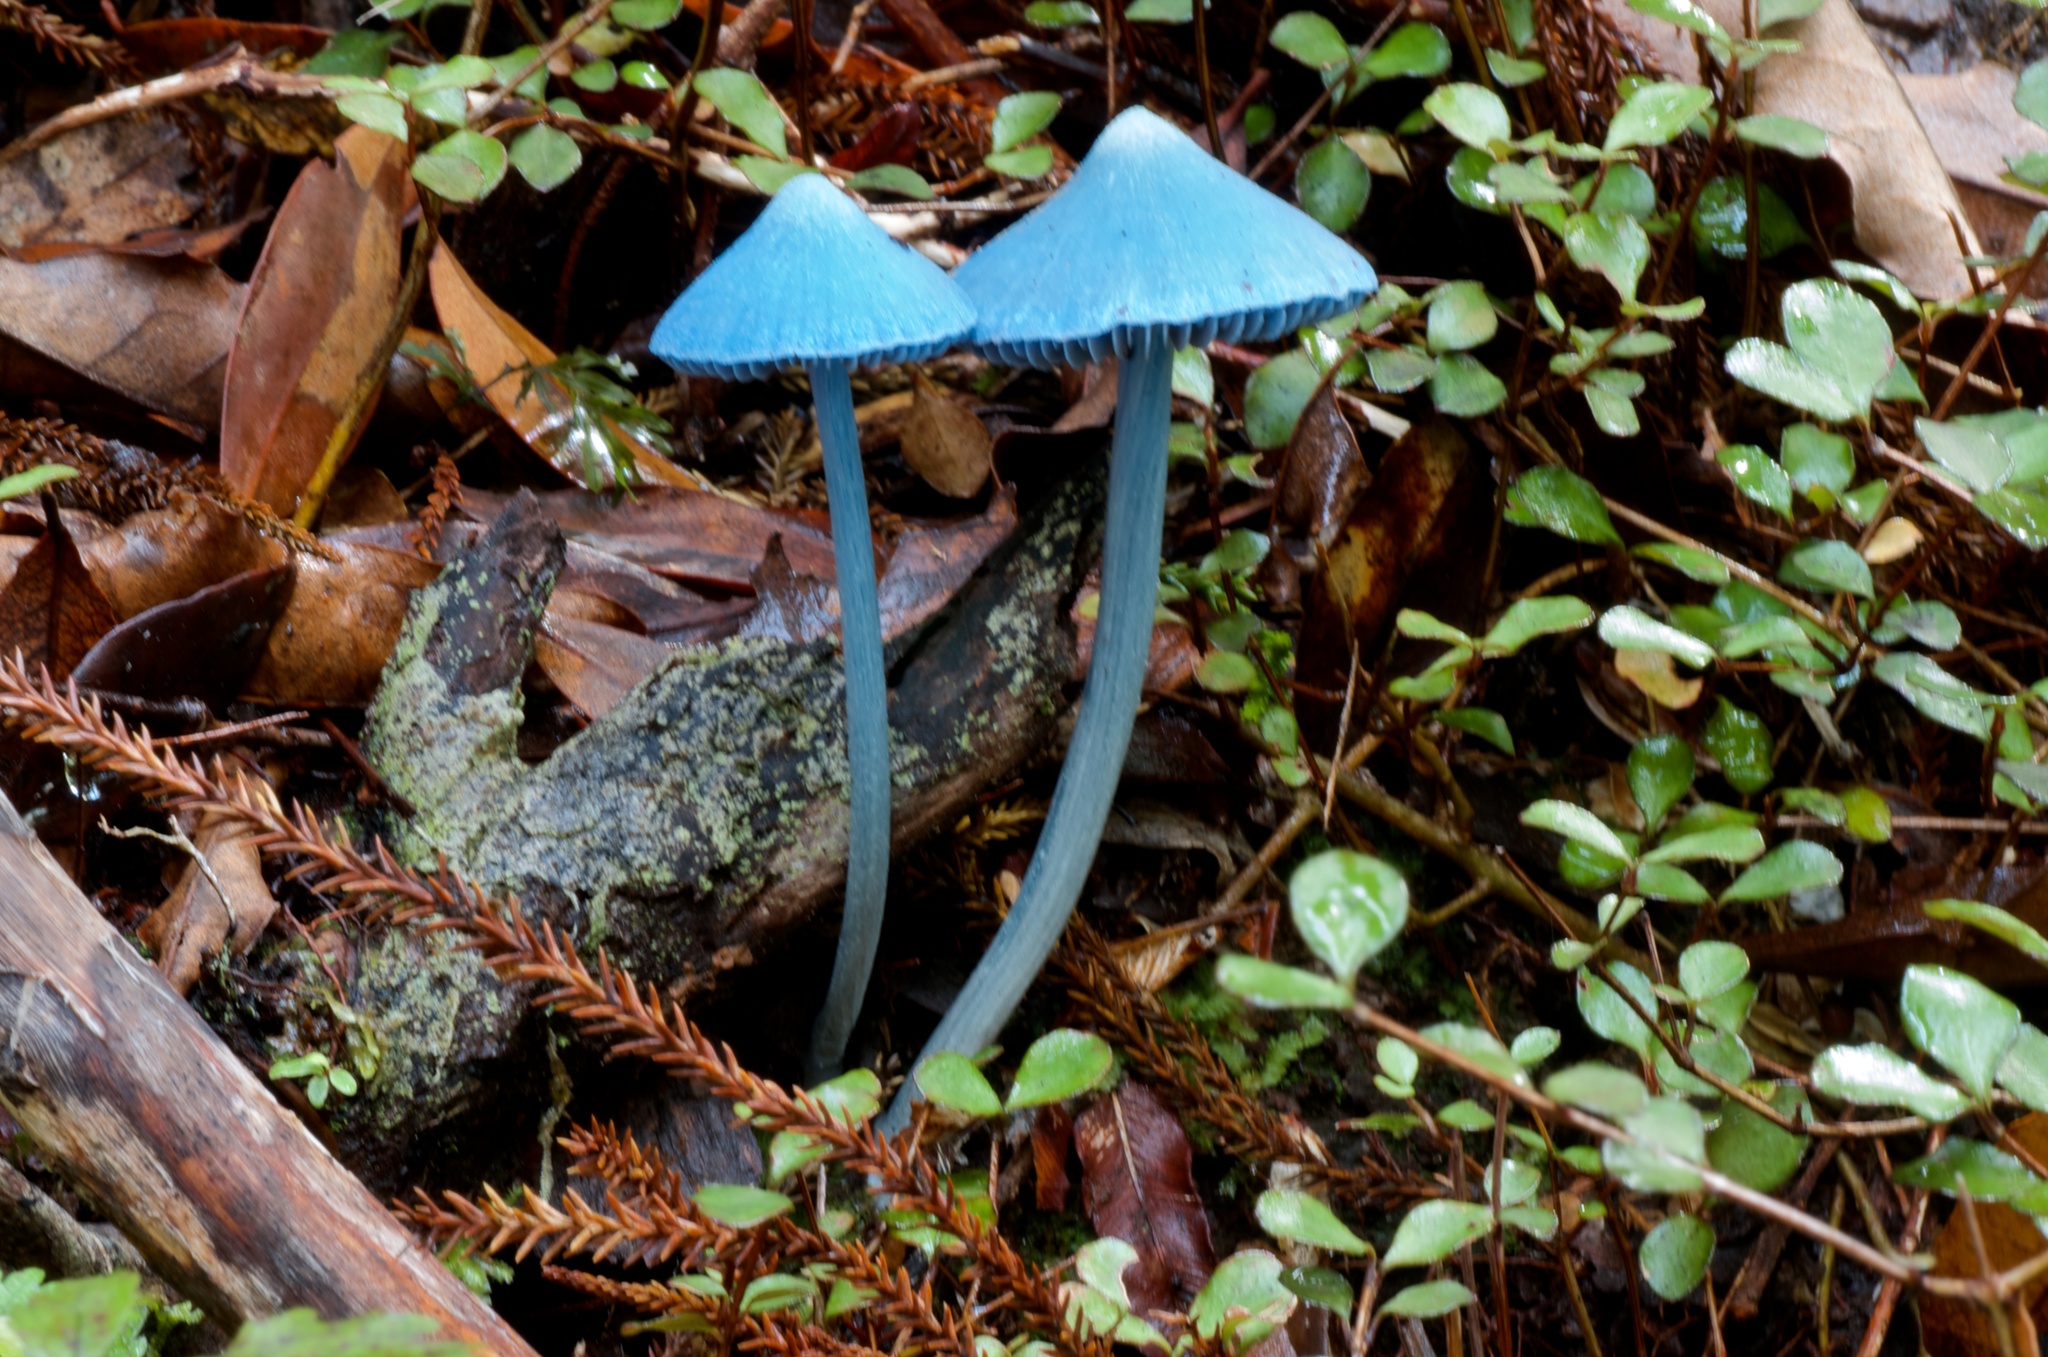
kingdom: Fungi
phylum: Basidiomycota
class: Agaricomycetes
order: Agaricales
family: Entolomataceae
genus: Entoloma
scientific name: Entoloma hochstetteri
